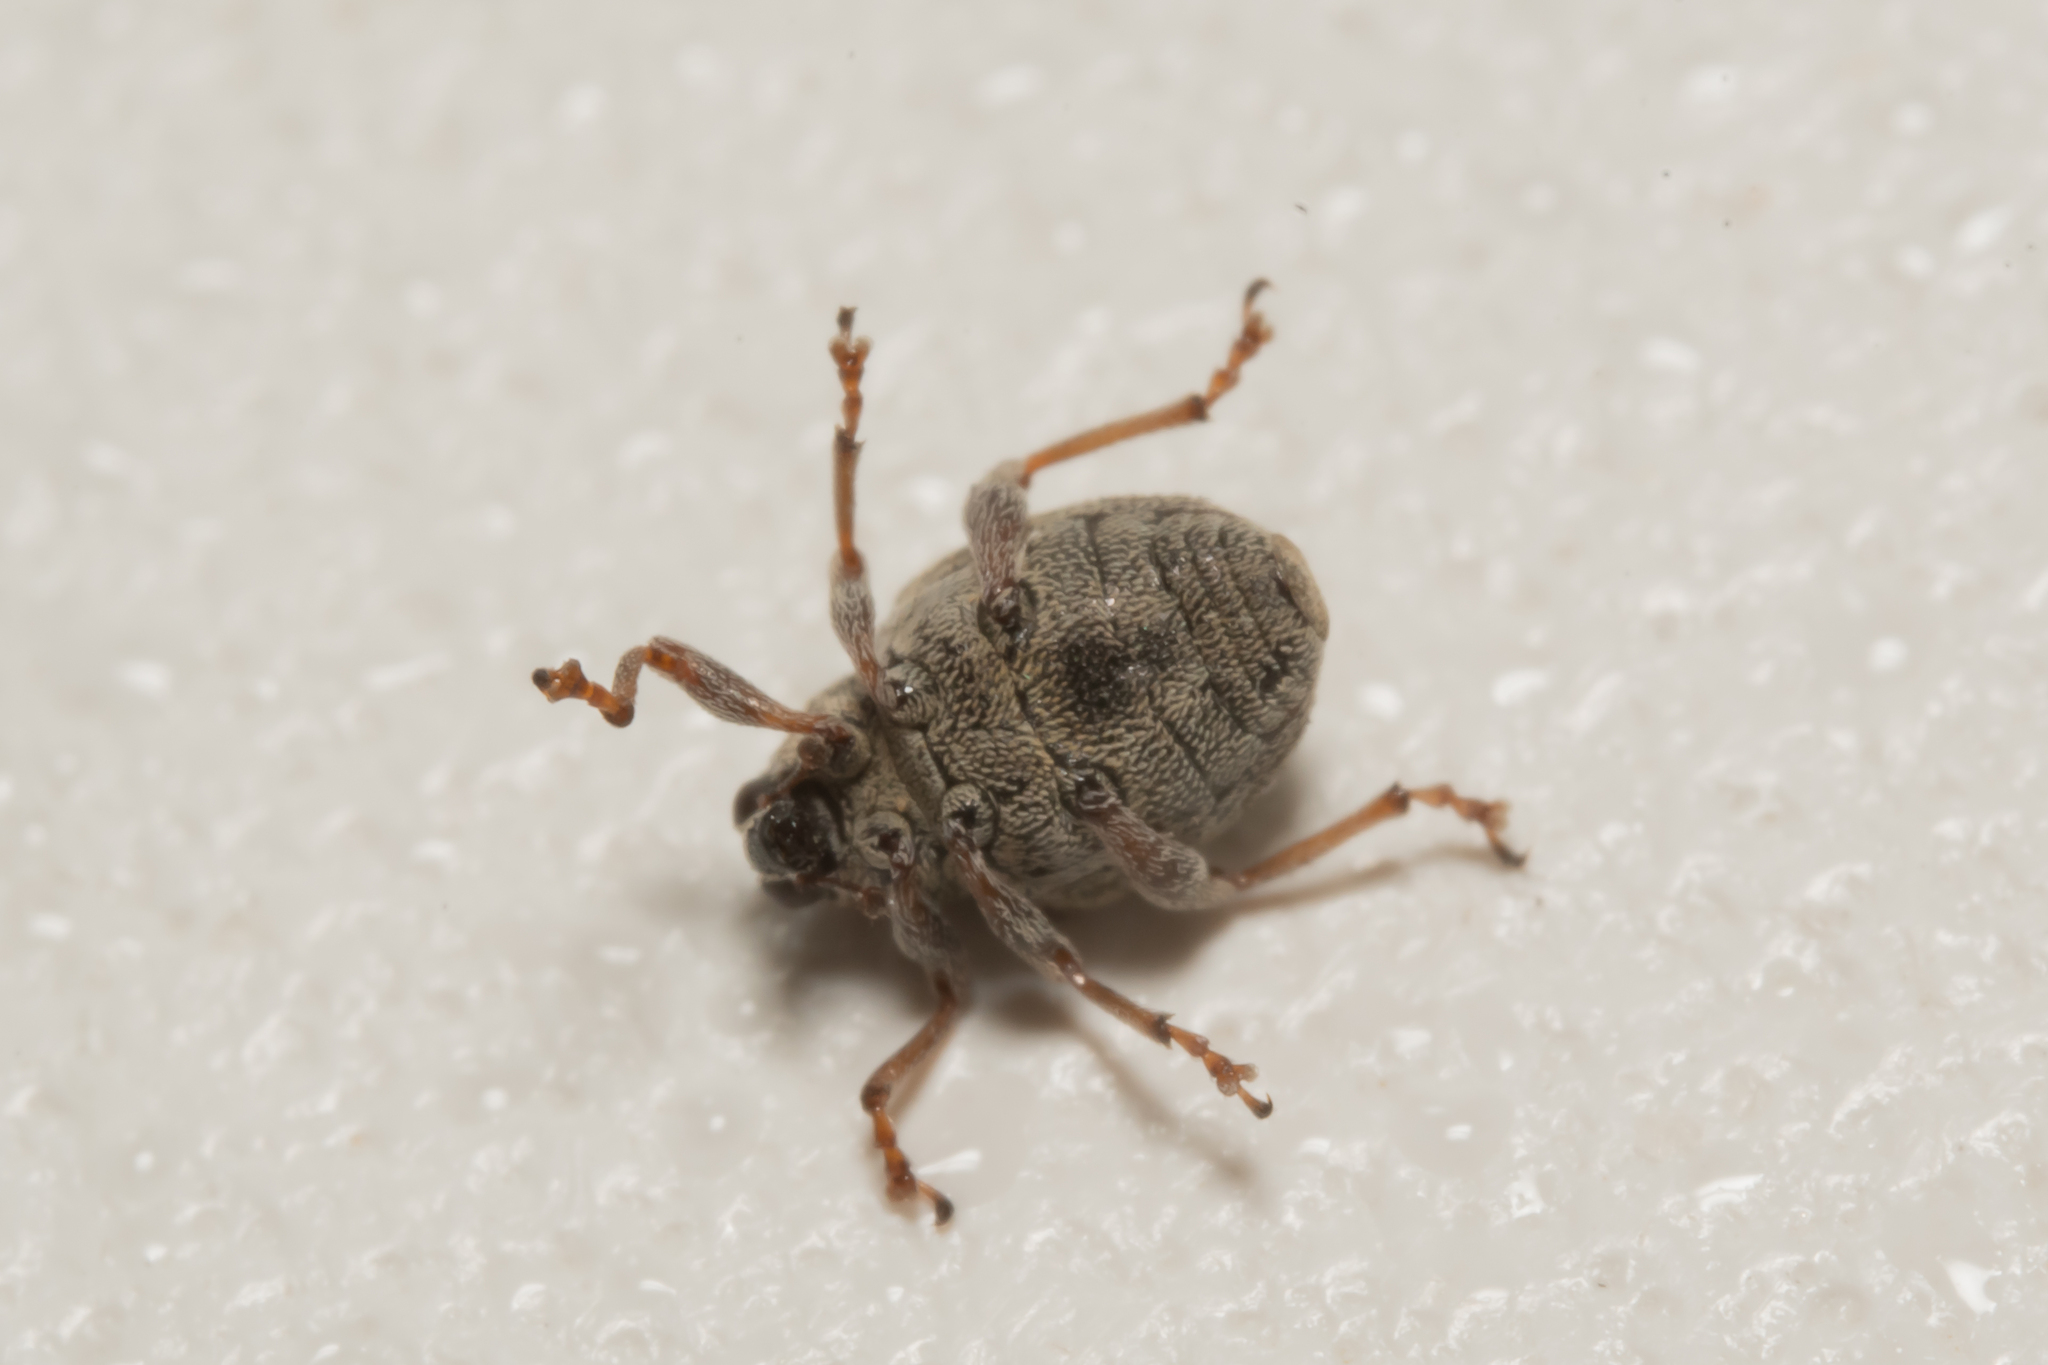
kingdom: Animalia
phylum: Arthropoda
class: Insecta
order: Coleoptera
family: Curculionidae
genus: Rhinoncus
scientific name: Rhinoncus bruchoides
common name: Weevil
